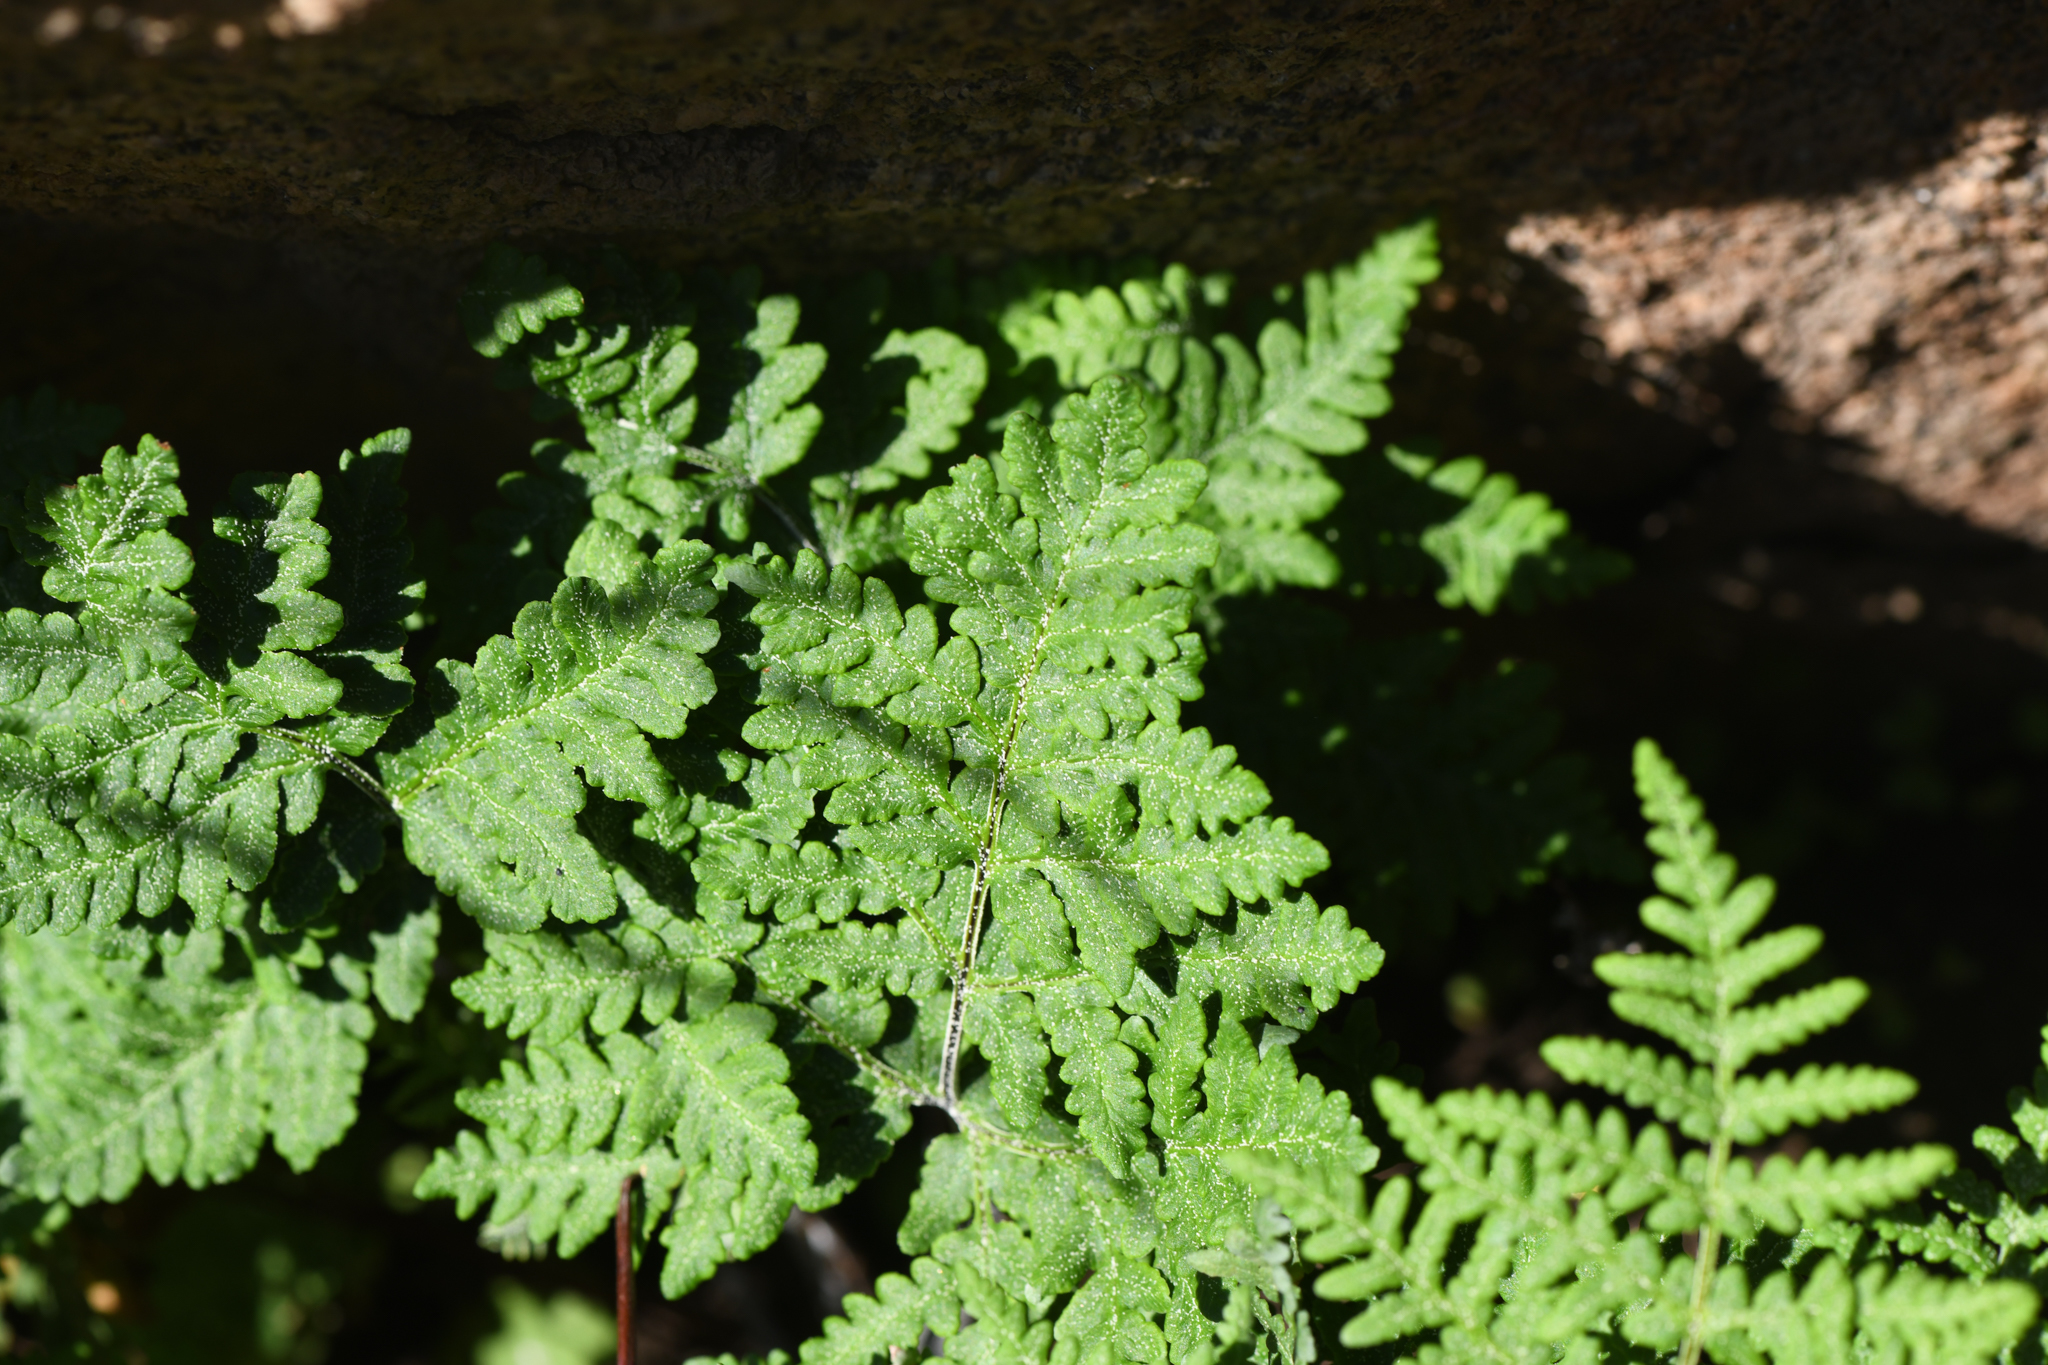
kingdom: Plantae
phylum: Tracheophyta
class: Polypodiopsida
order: Polypodiales
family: Pteridaceae
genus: Pentagramma
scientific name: Pentagramma rebmanii
